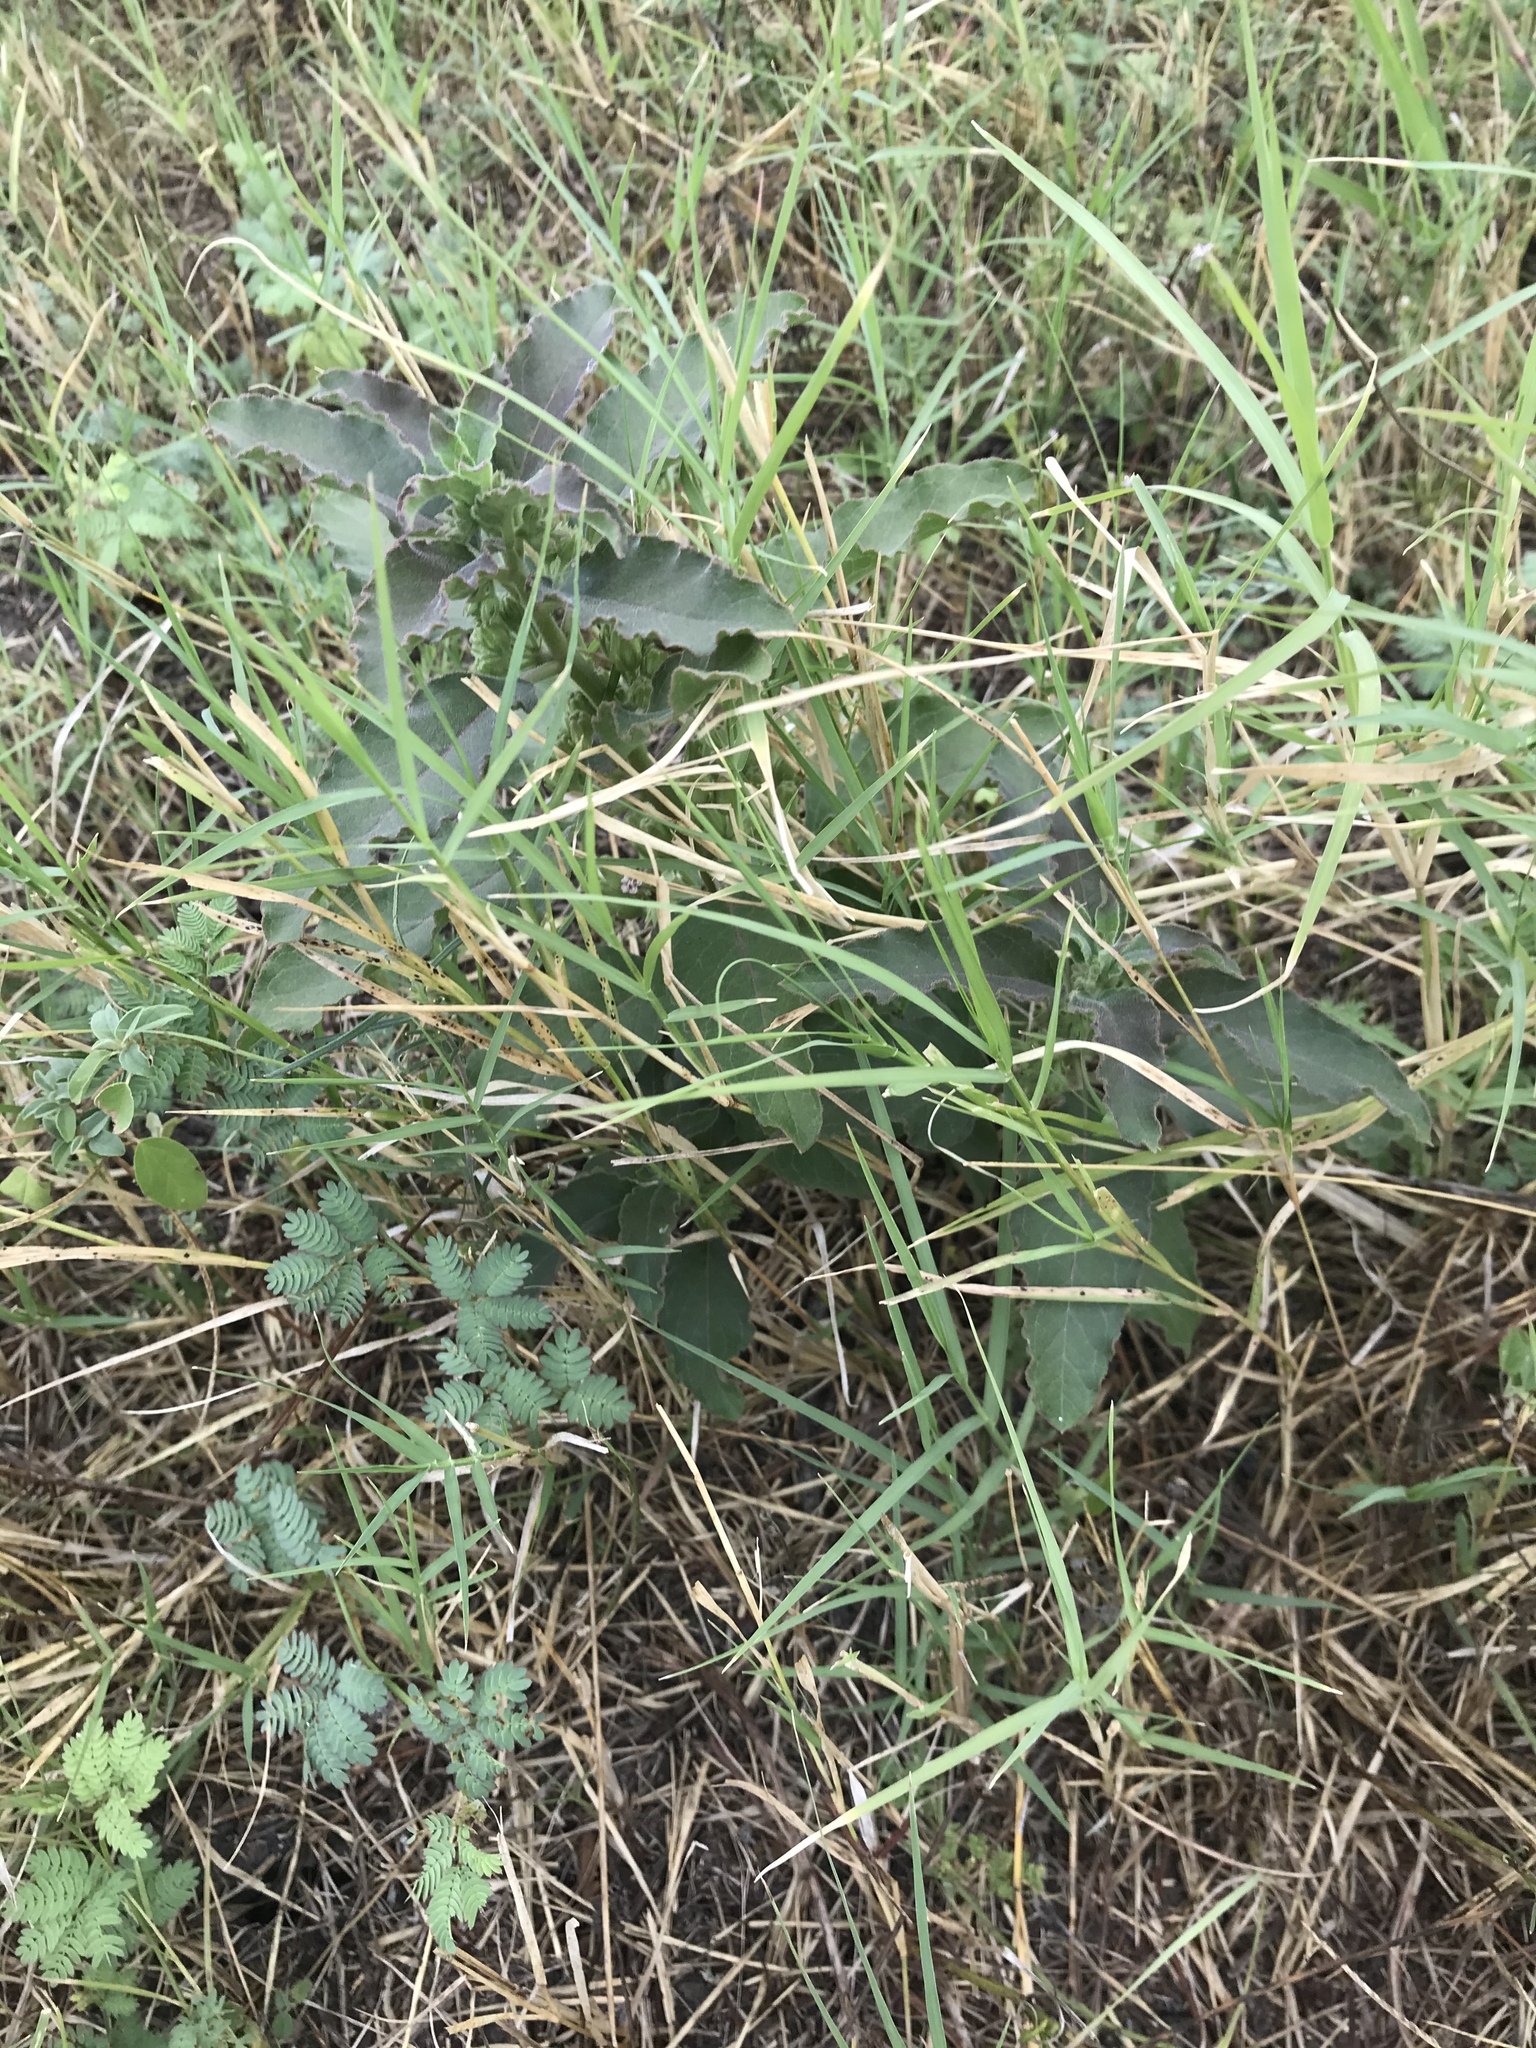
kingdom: Plantae
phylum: Tracheophyta
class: Magnoliopsida
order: Gentianales
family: Apocynaceae
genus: Asclepias
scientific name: Asclepias oenotheroides
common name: Zizotes milkweed
